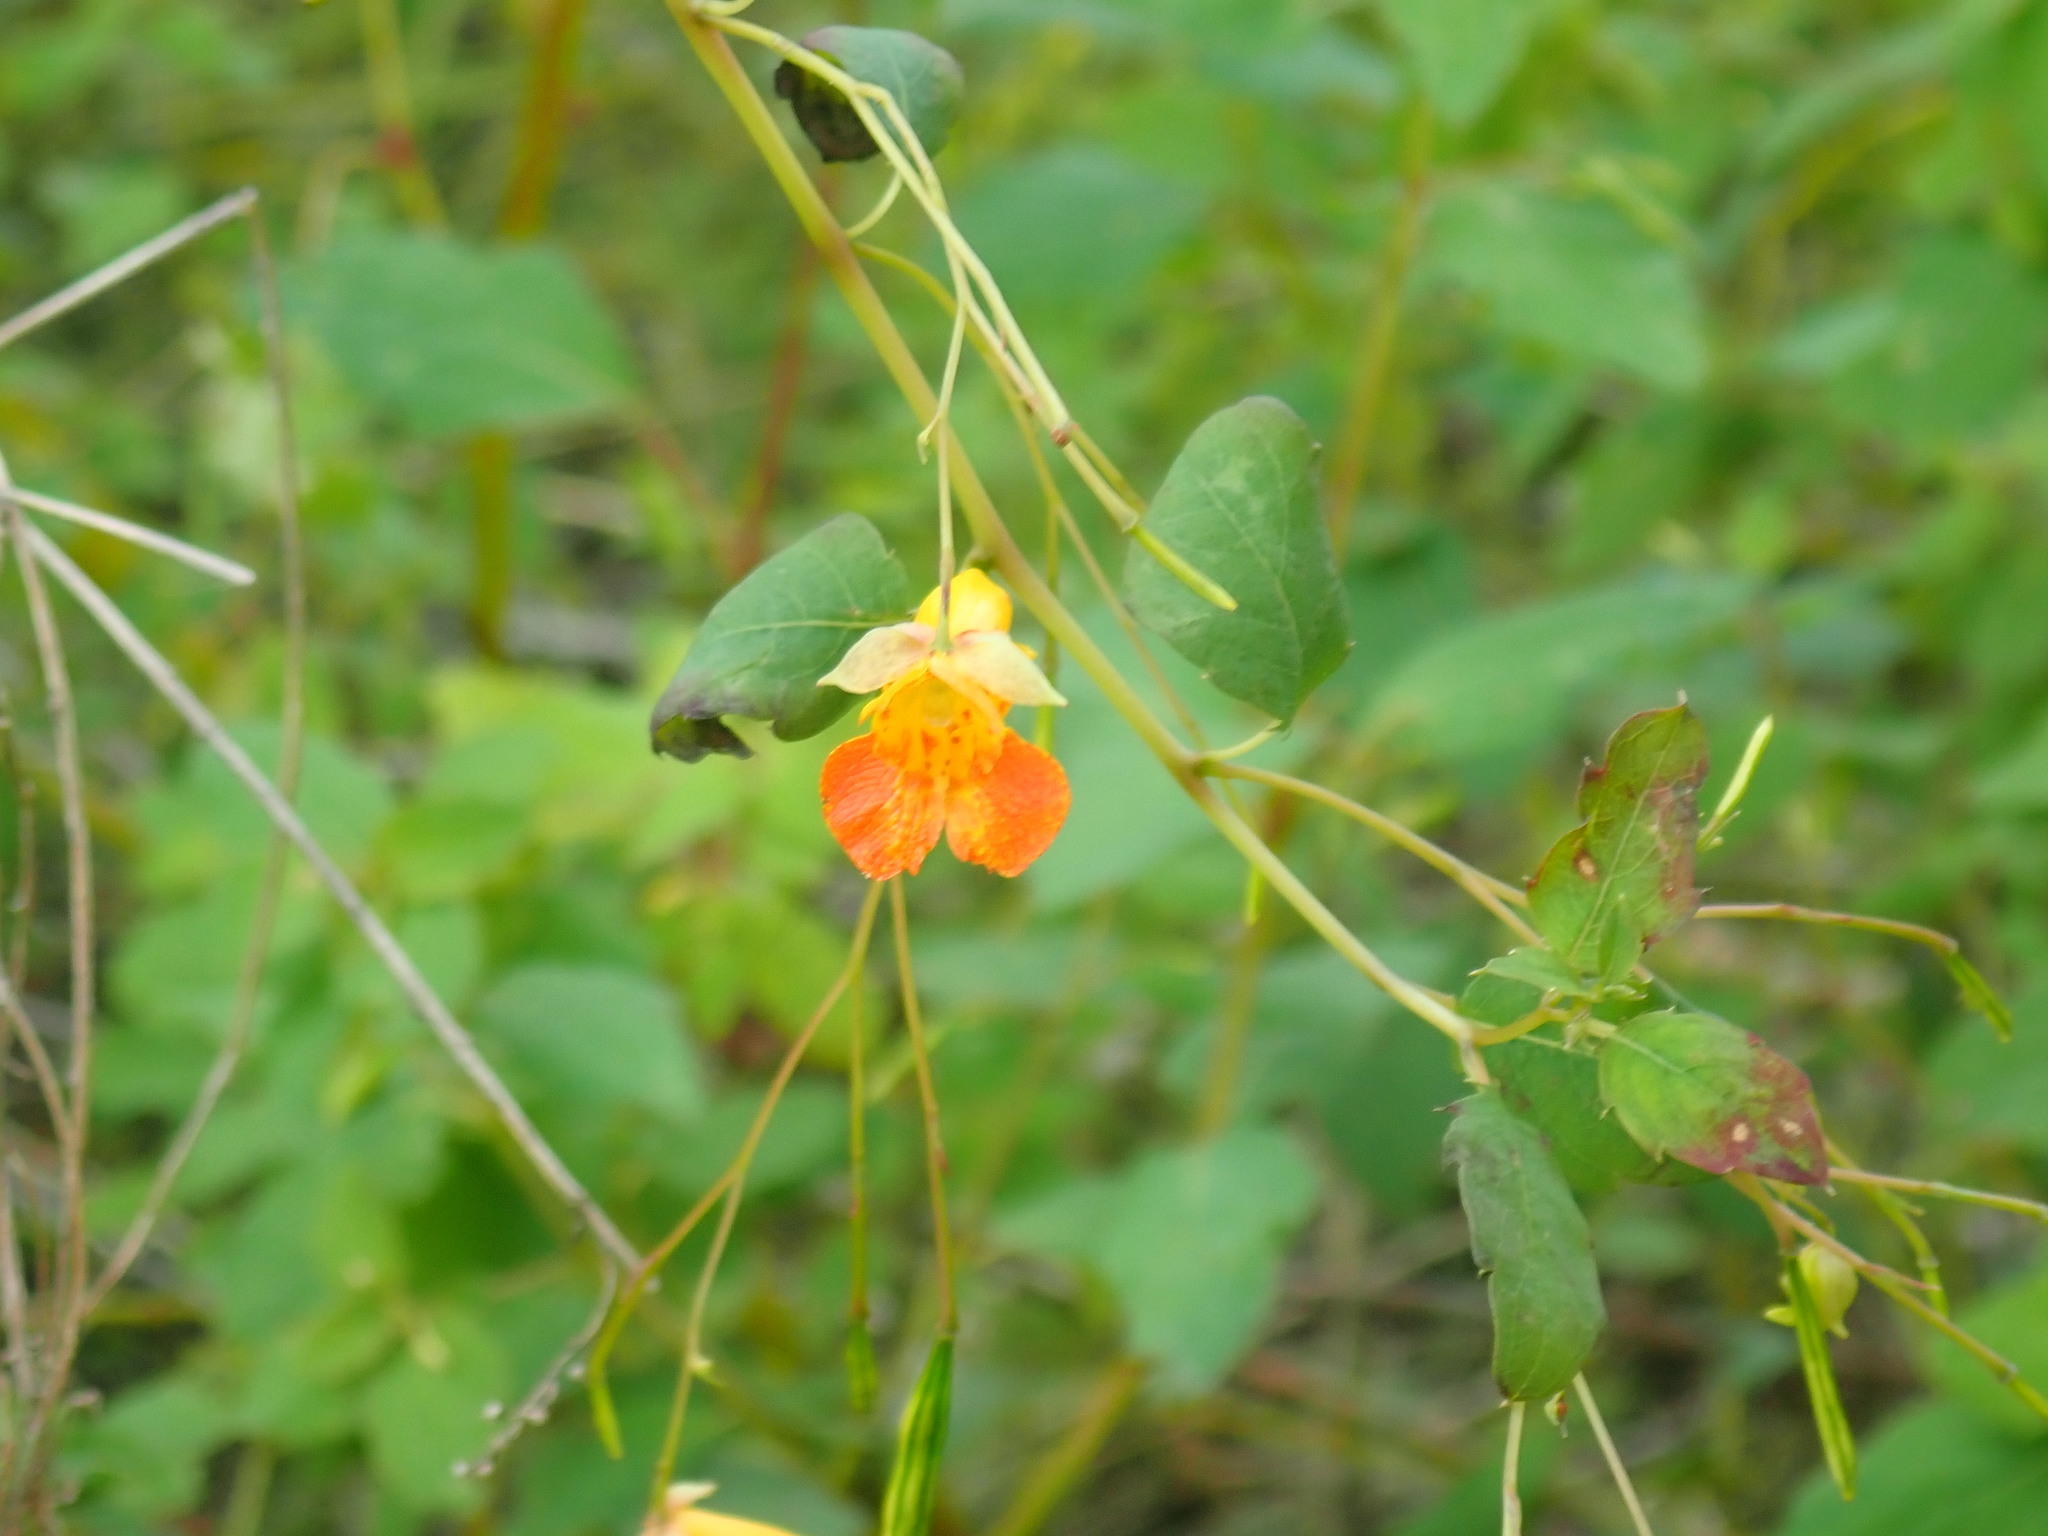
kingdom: Plantae
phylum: Tracheophyta
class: Magnoliopsida
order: Ericales
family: Balsaminaceae
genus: Impatiens
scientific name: Impatiens capensis
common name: Orange balsam
